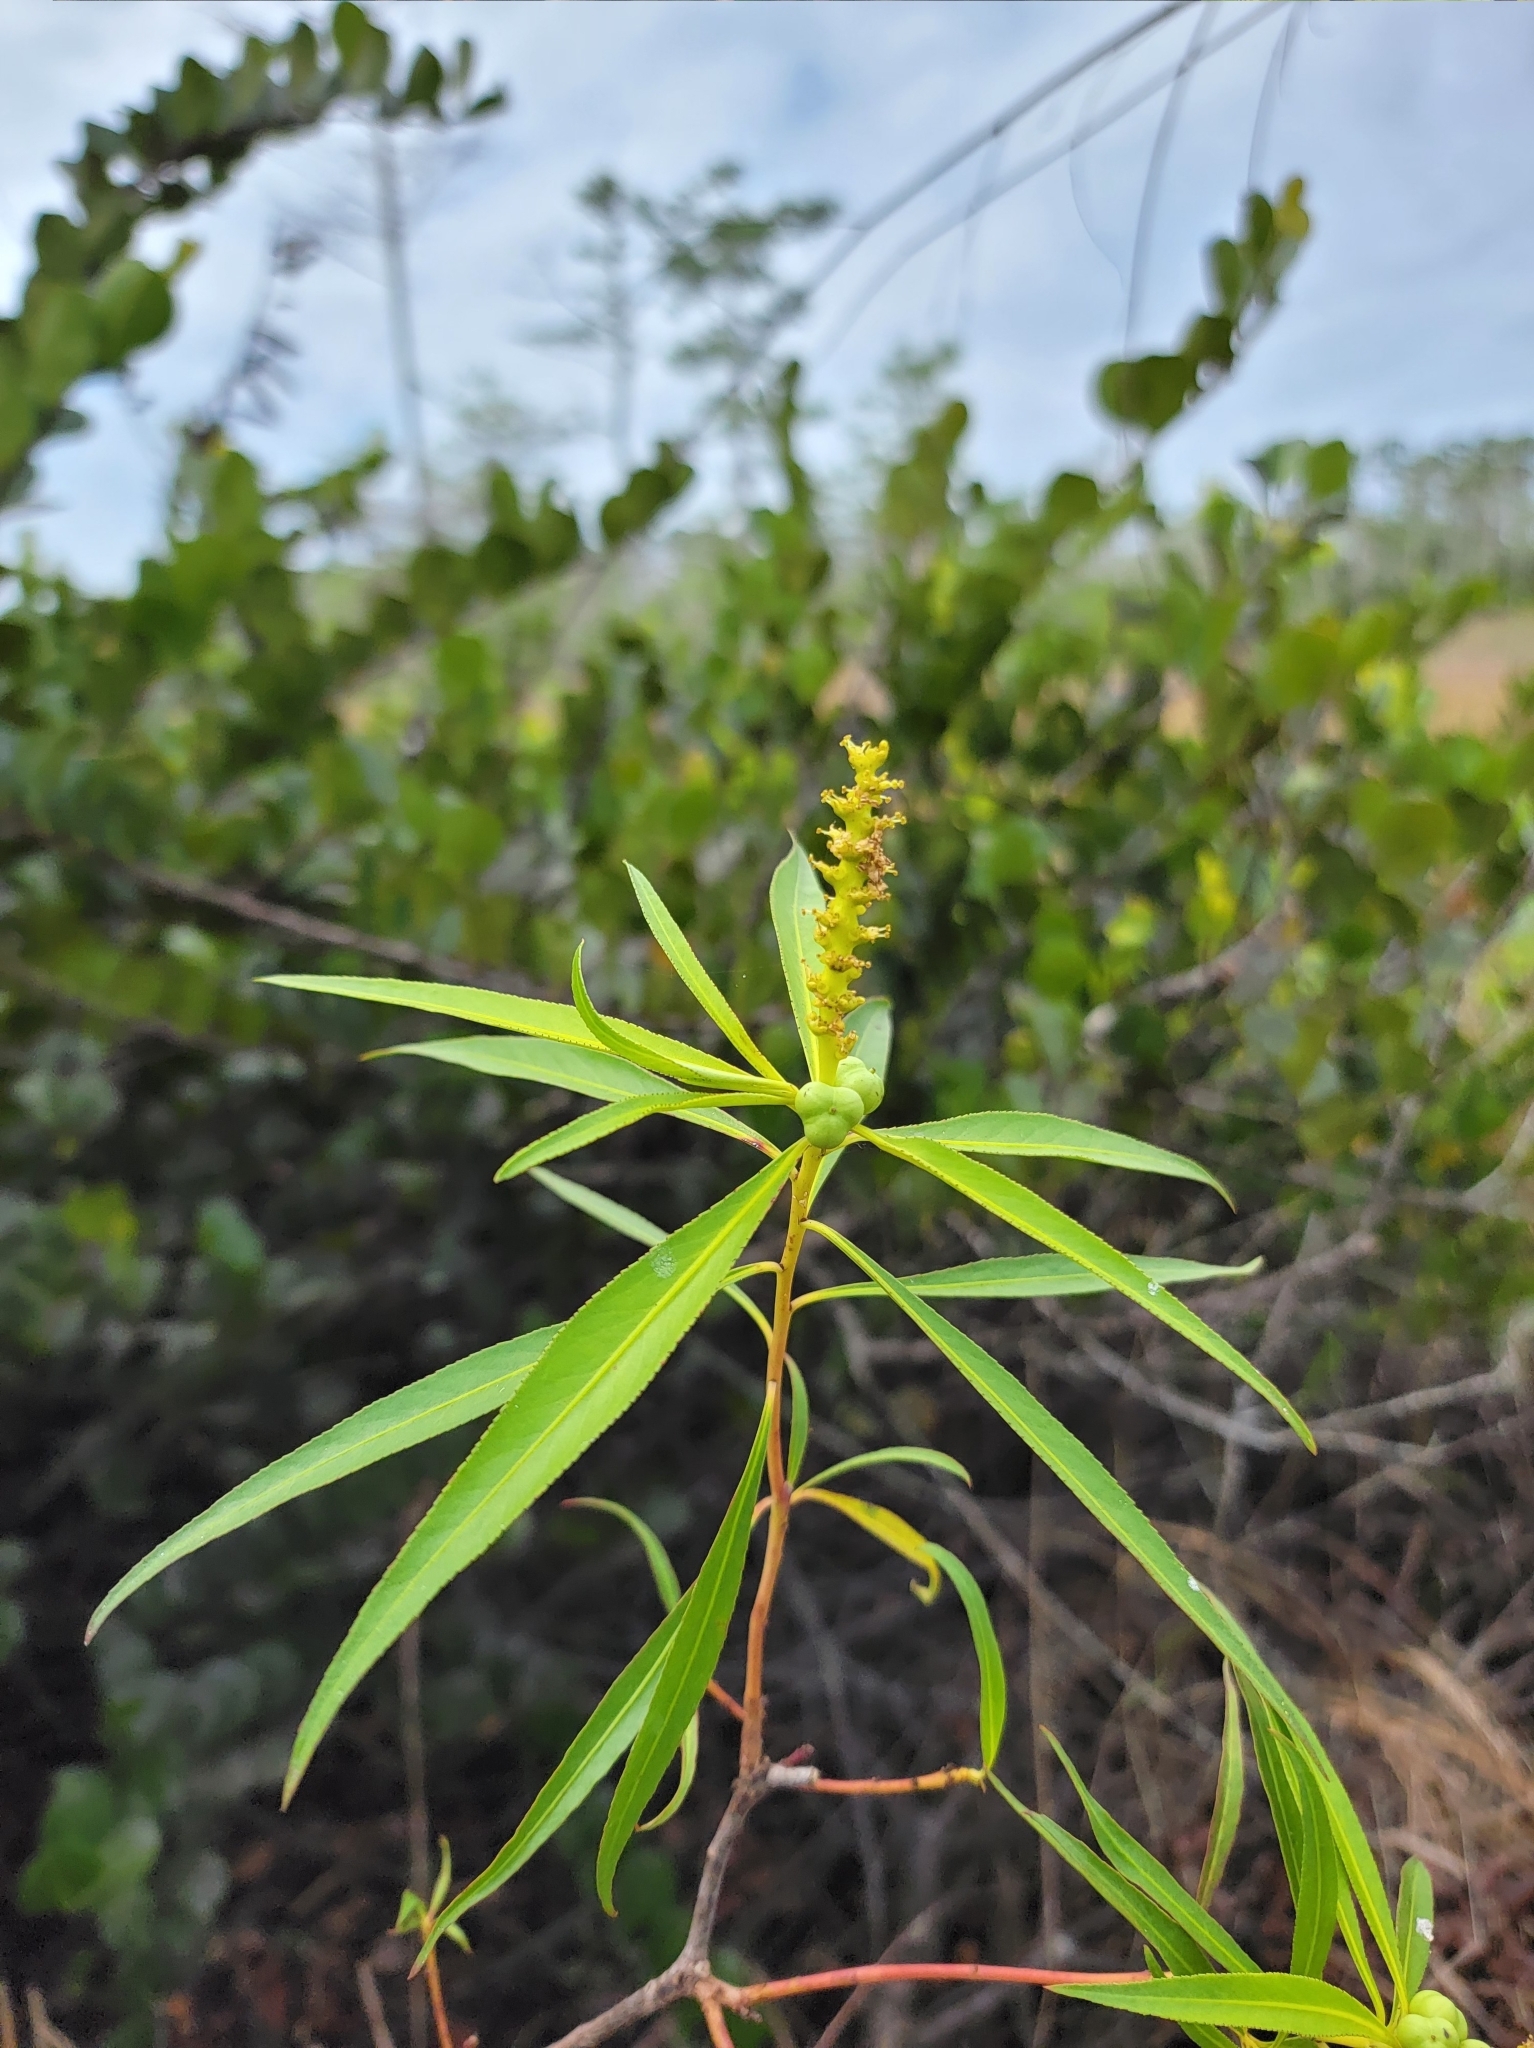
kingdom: Plantae
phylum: Tracheophyta
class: Magnoliopsida
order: Malpighiales
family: Euphorbiaceae
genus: Stillingia
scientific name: Stillingia aquatica
